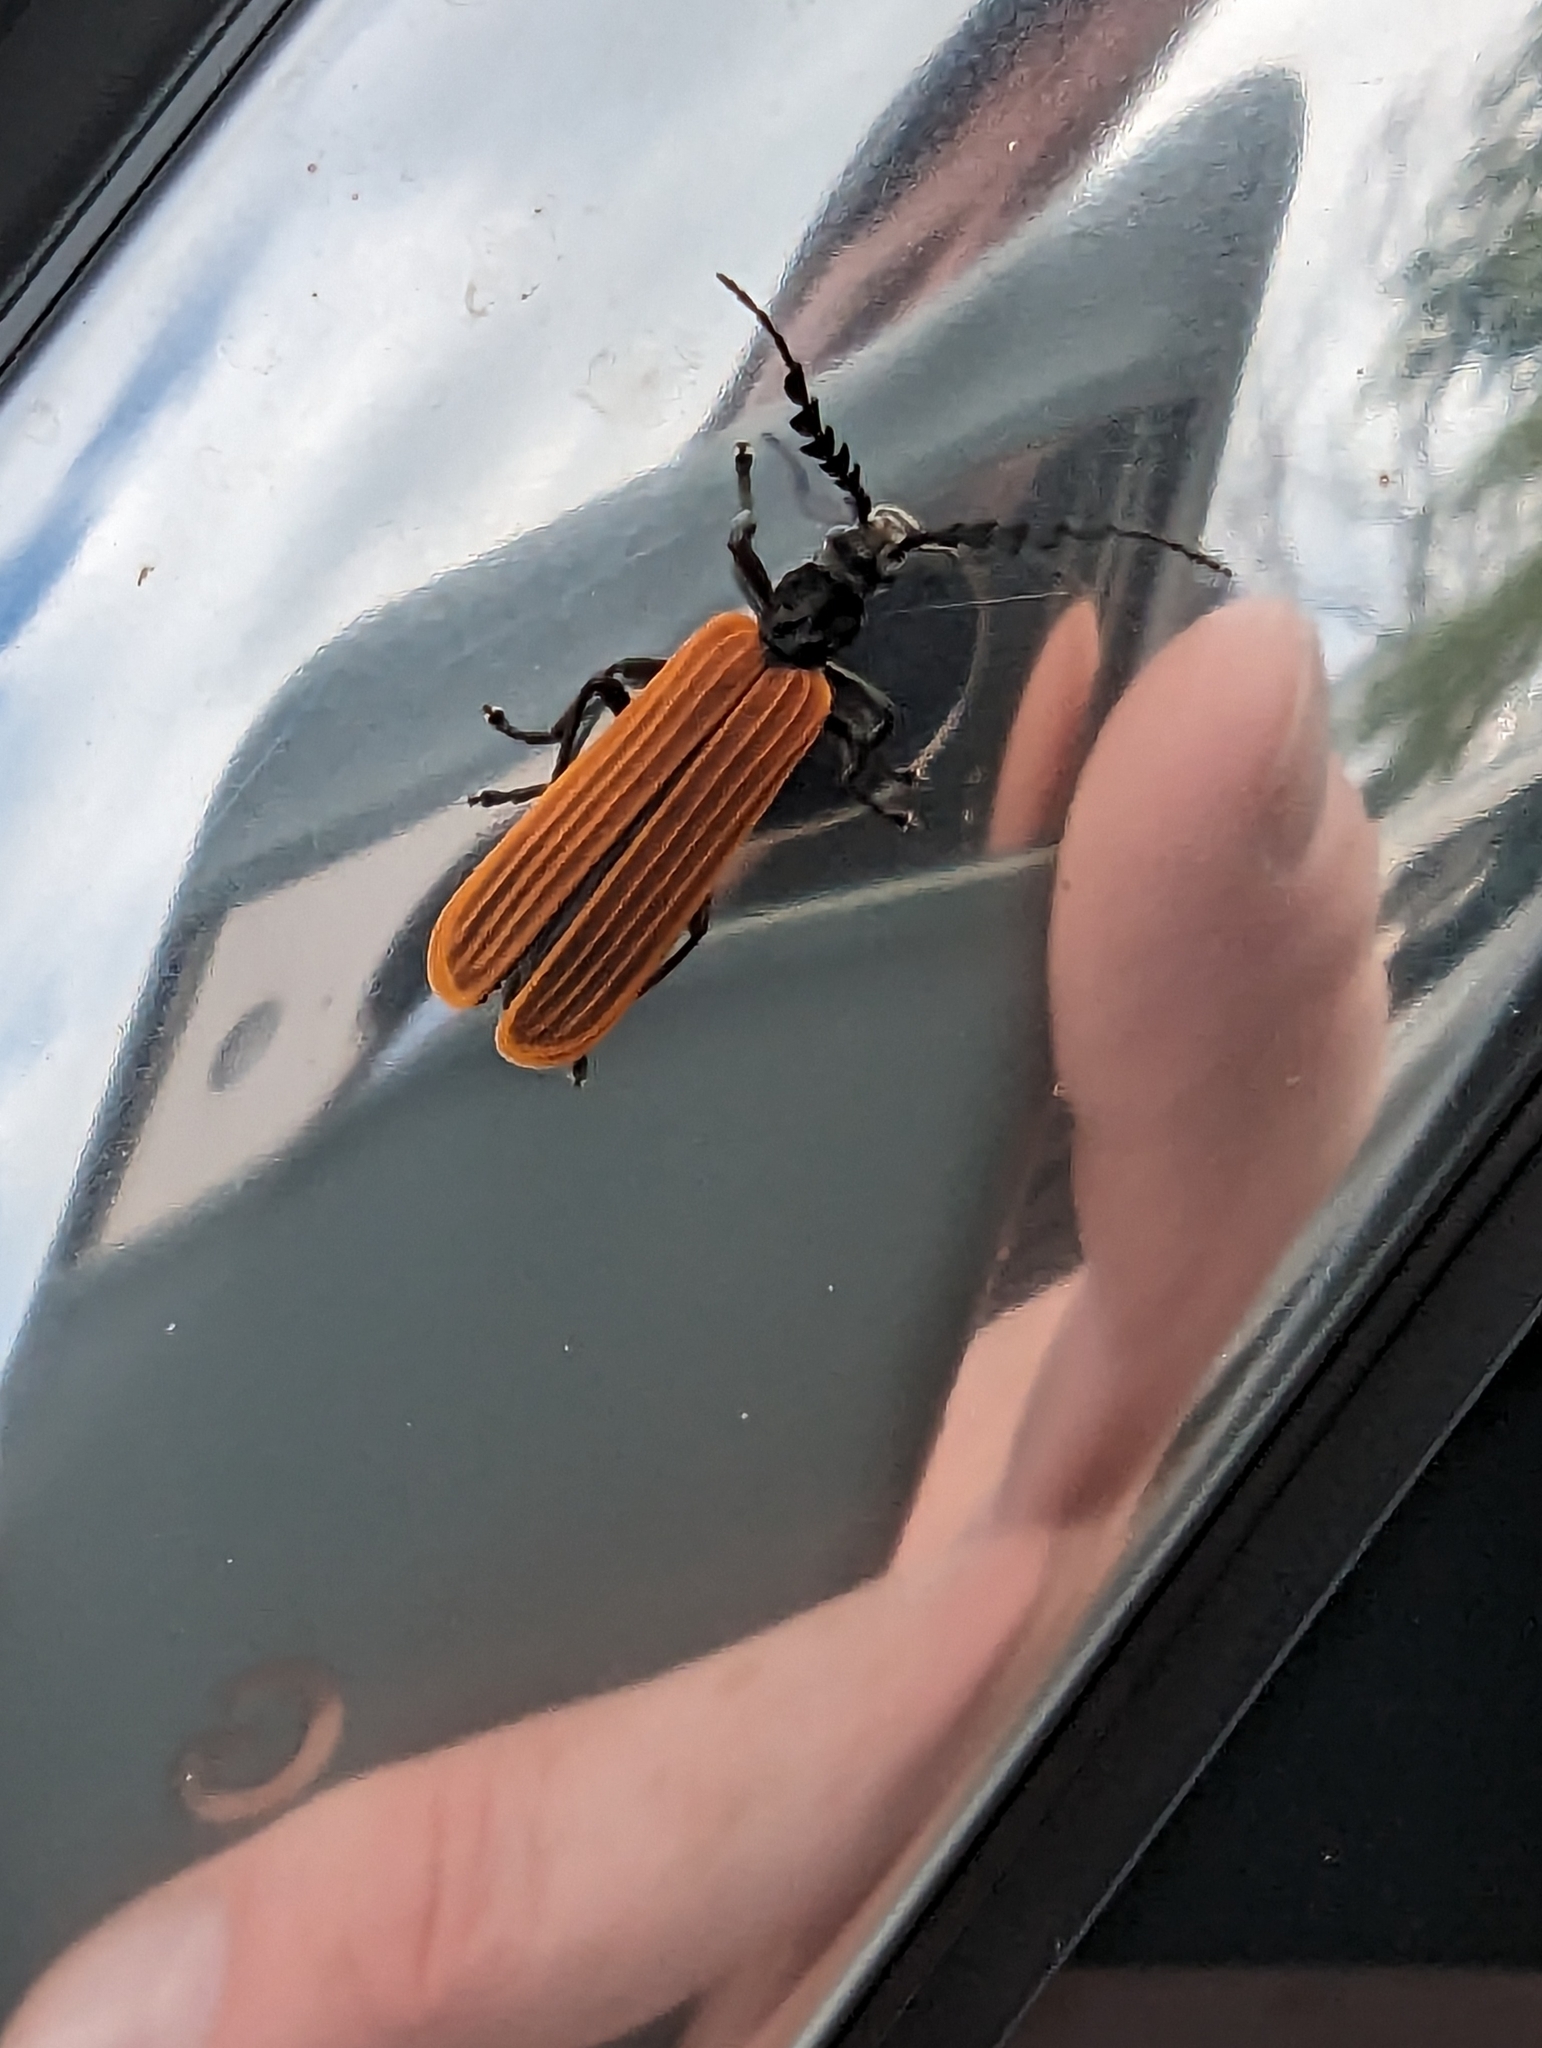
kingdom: Animalia
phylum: Arthropoda
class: Insecta
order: Coleoptera
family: Oedemeridae
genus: Pseudolycus
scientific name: Pseudolycus
